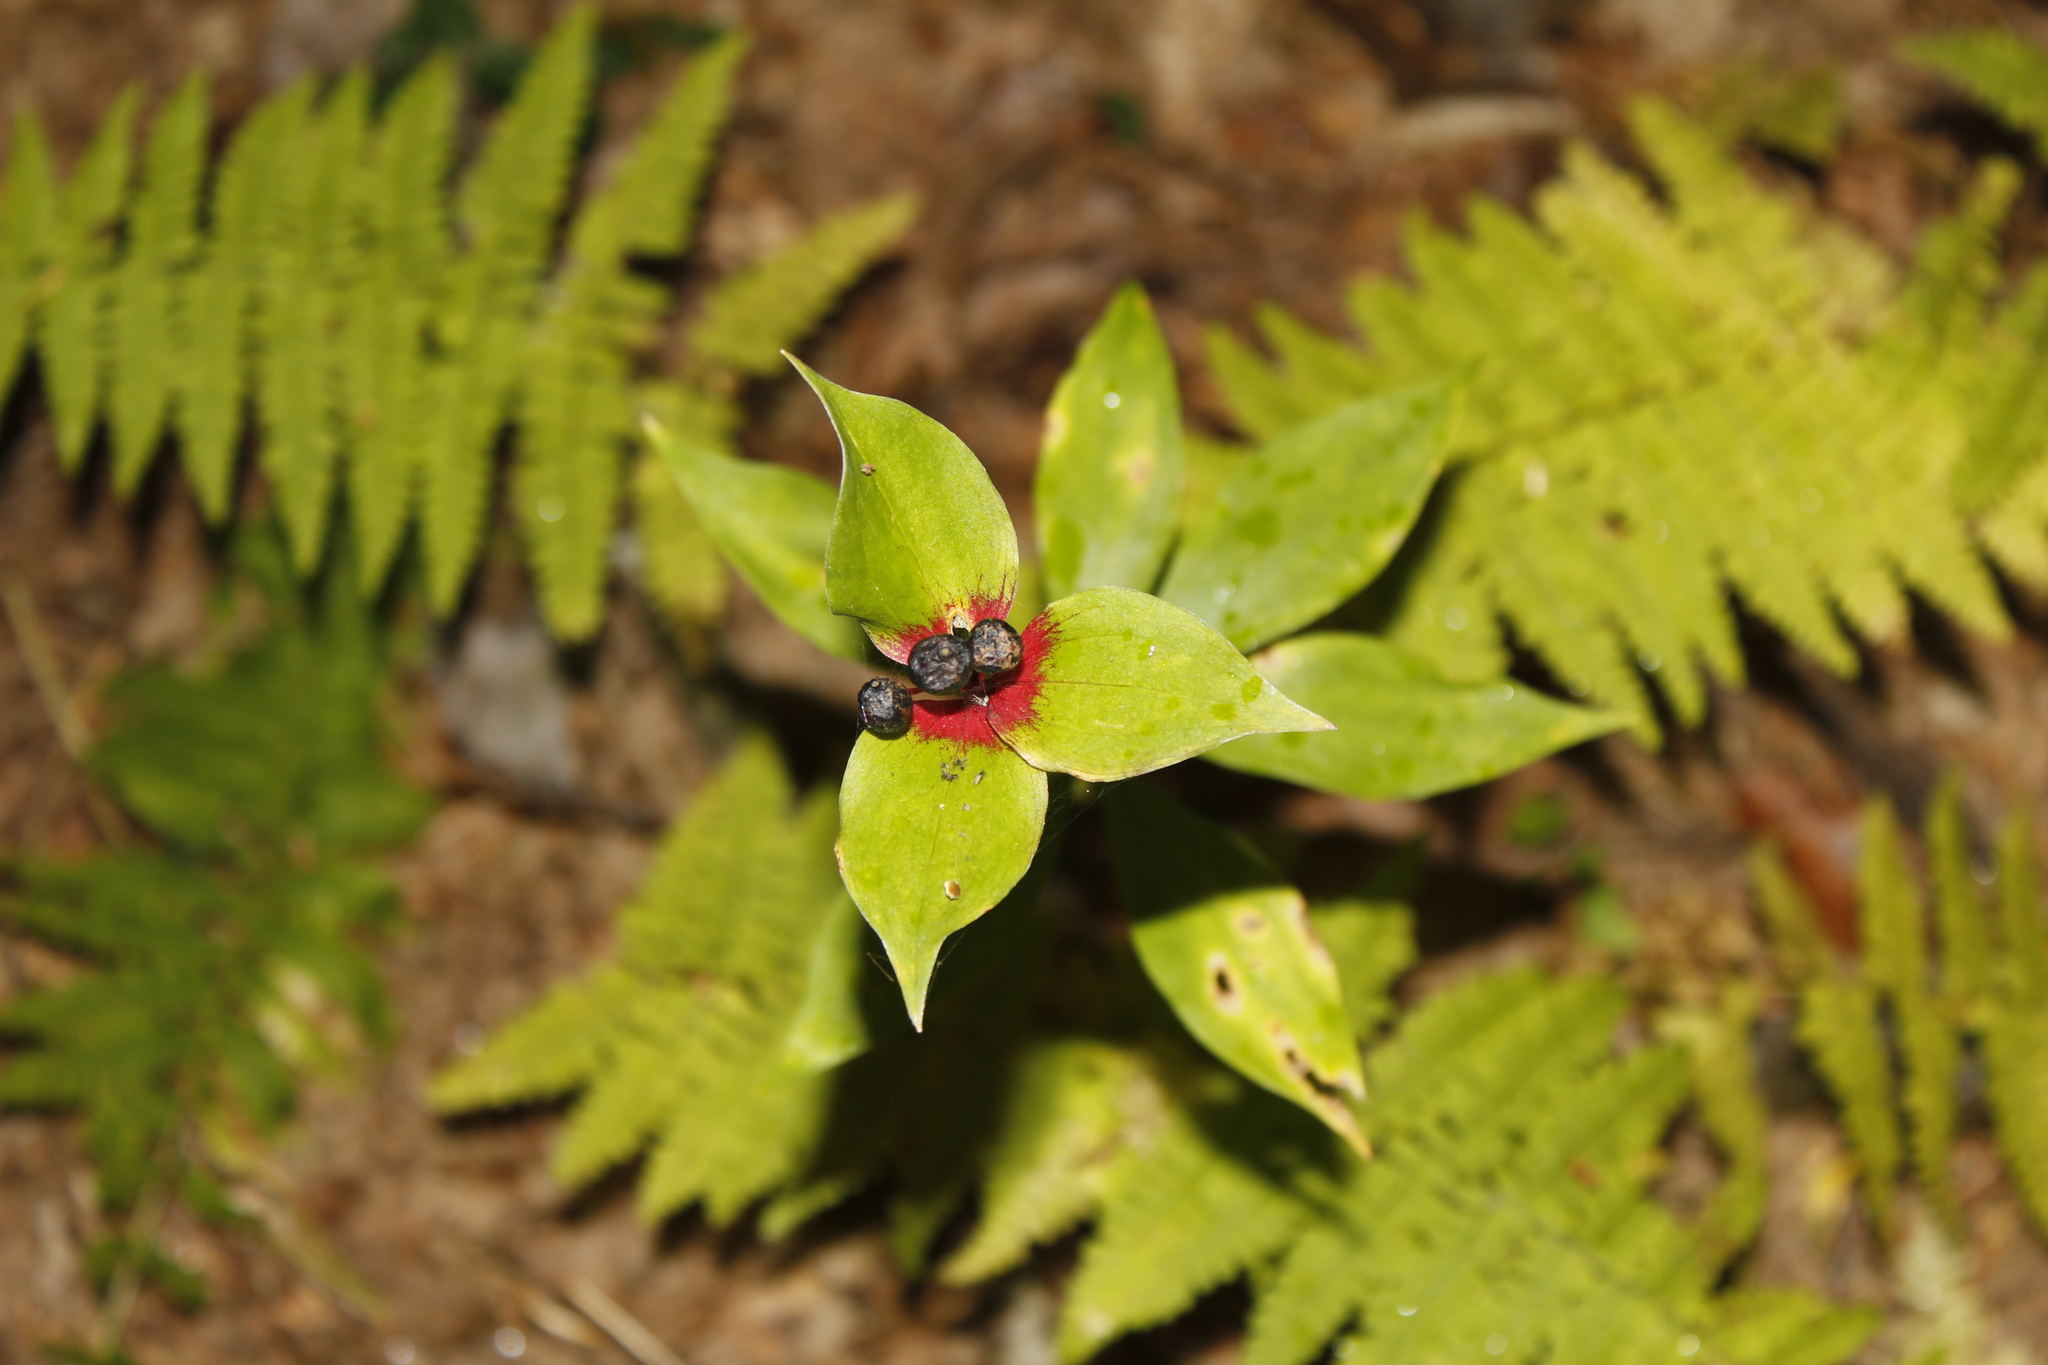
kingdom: Plantae
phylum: Tracheophyta
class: Liliopsida
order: Liliales
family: Liliaceae
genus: Medeola
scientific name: Medeola virginiana
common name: Indian cucumber-root
